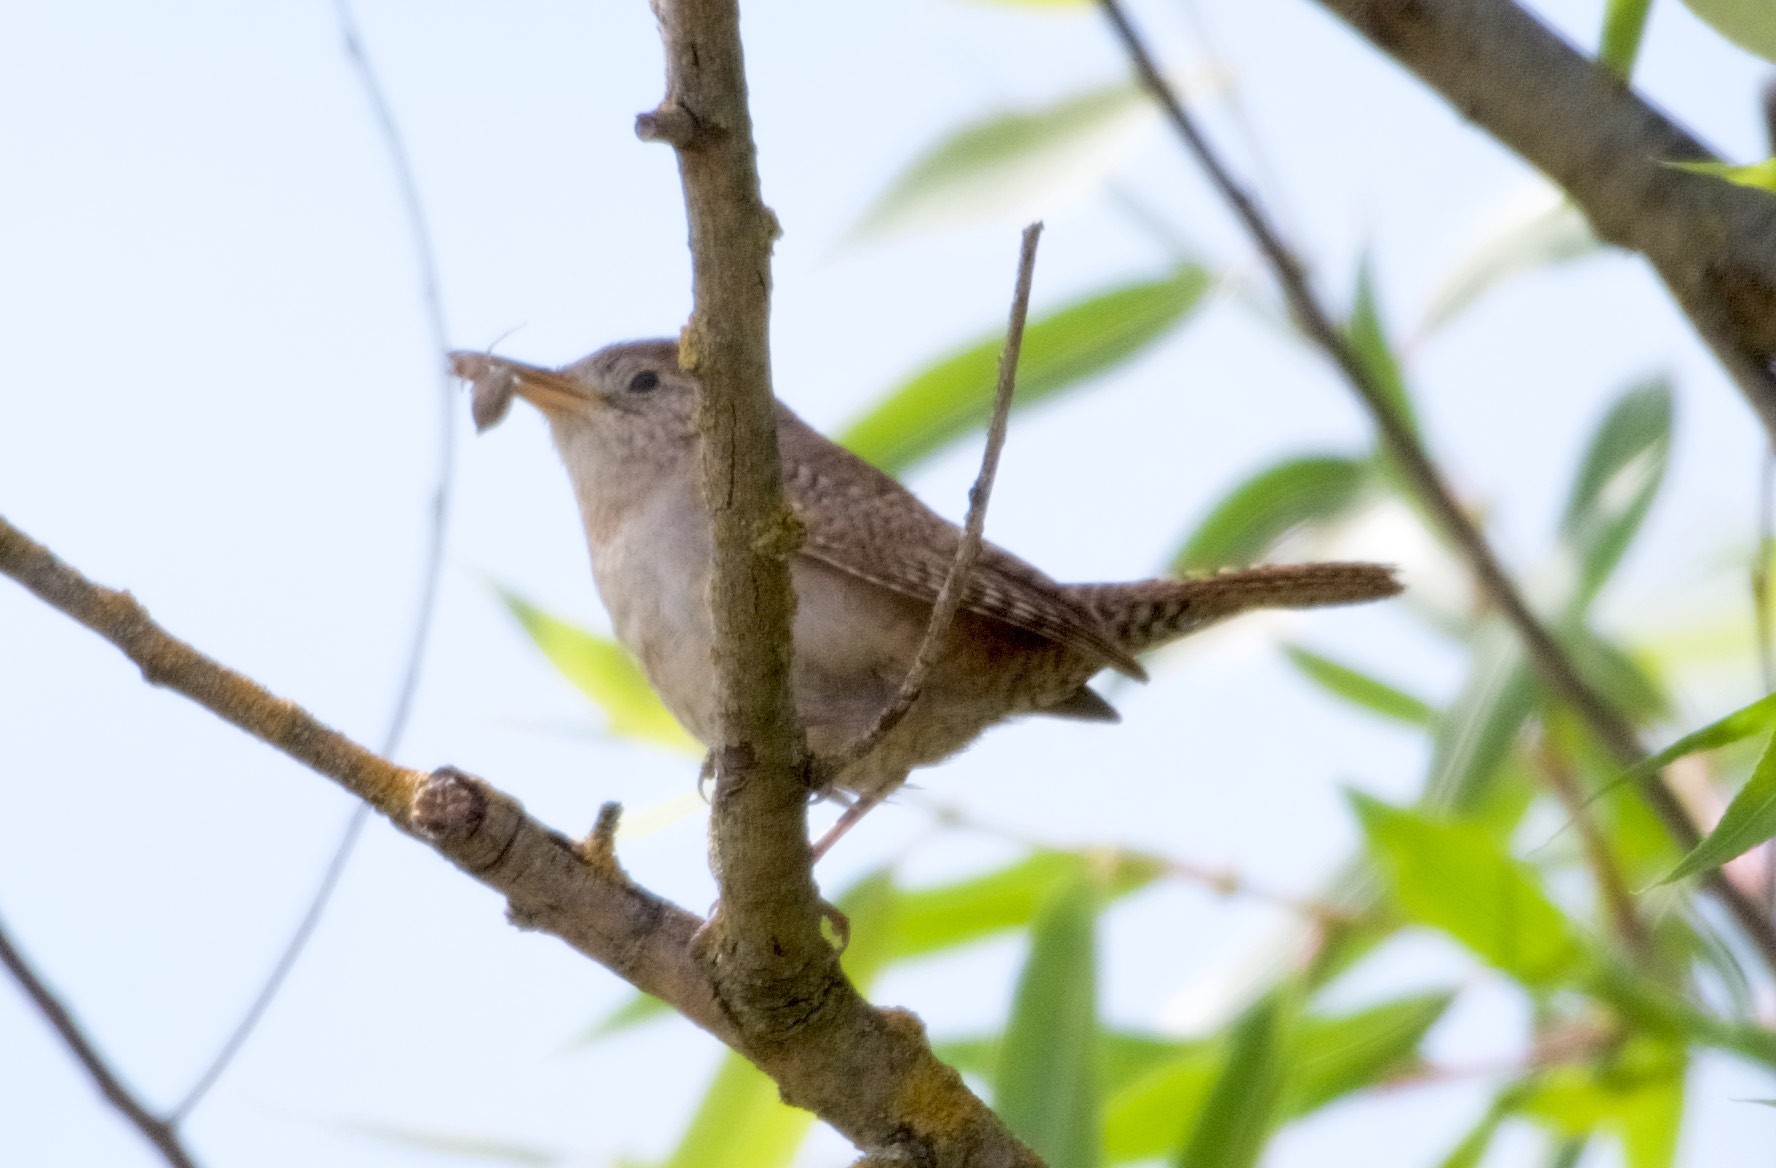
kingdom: Animalia
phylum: Chordata
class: Aves
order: Passeriformes
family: Troglodytidae
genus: Troglodytes
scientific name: Troglodytes aedon
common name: House wren
